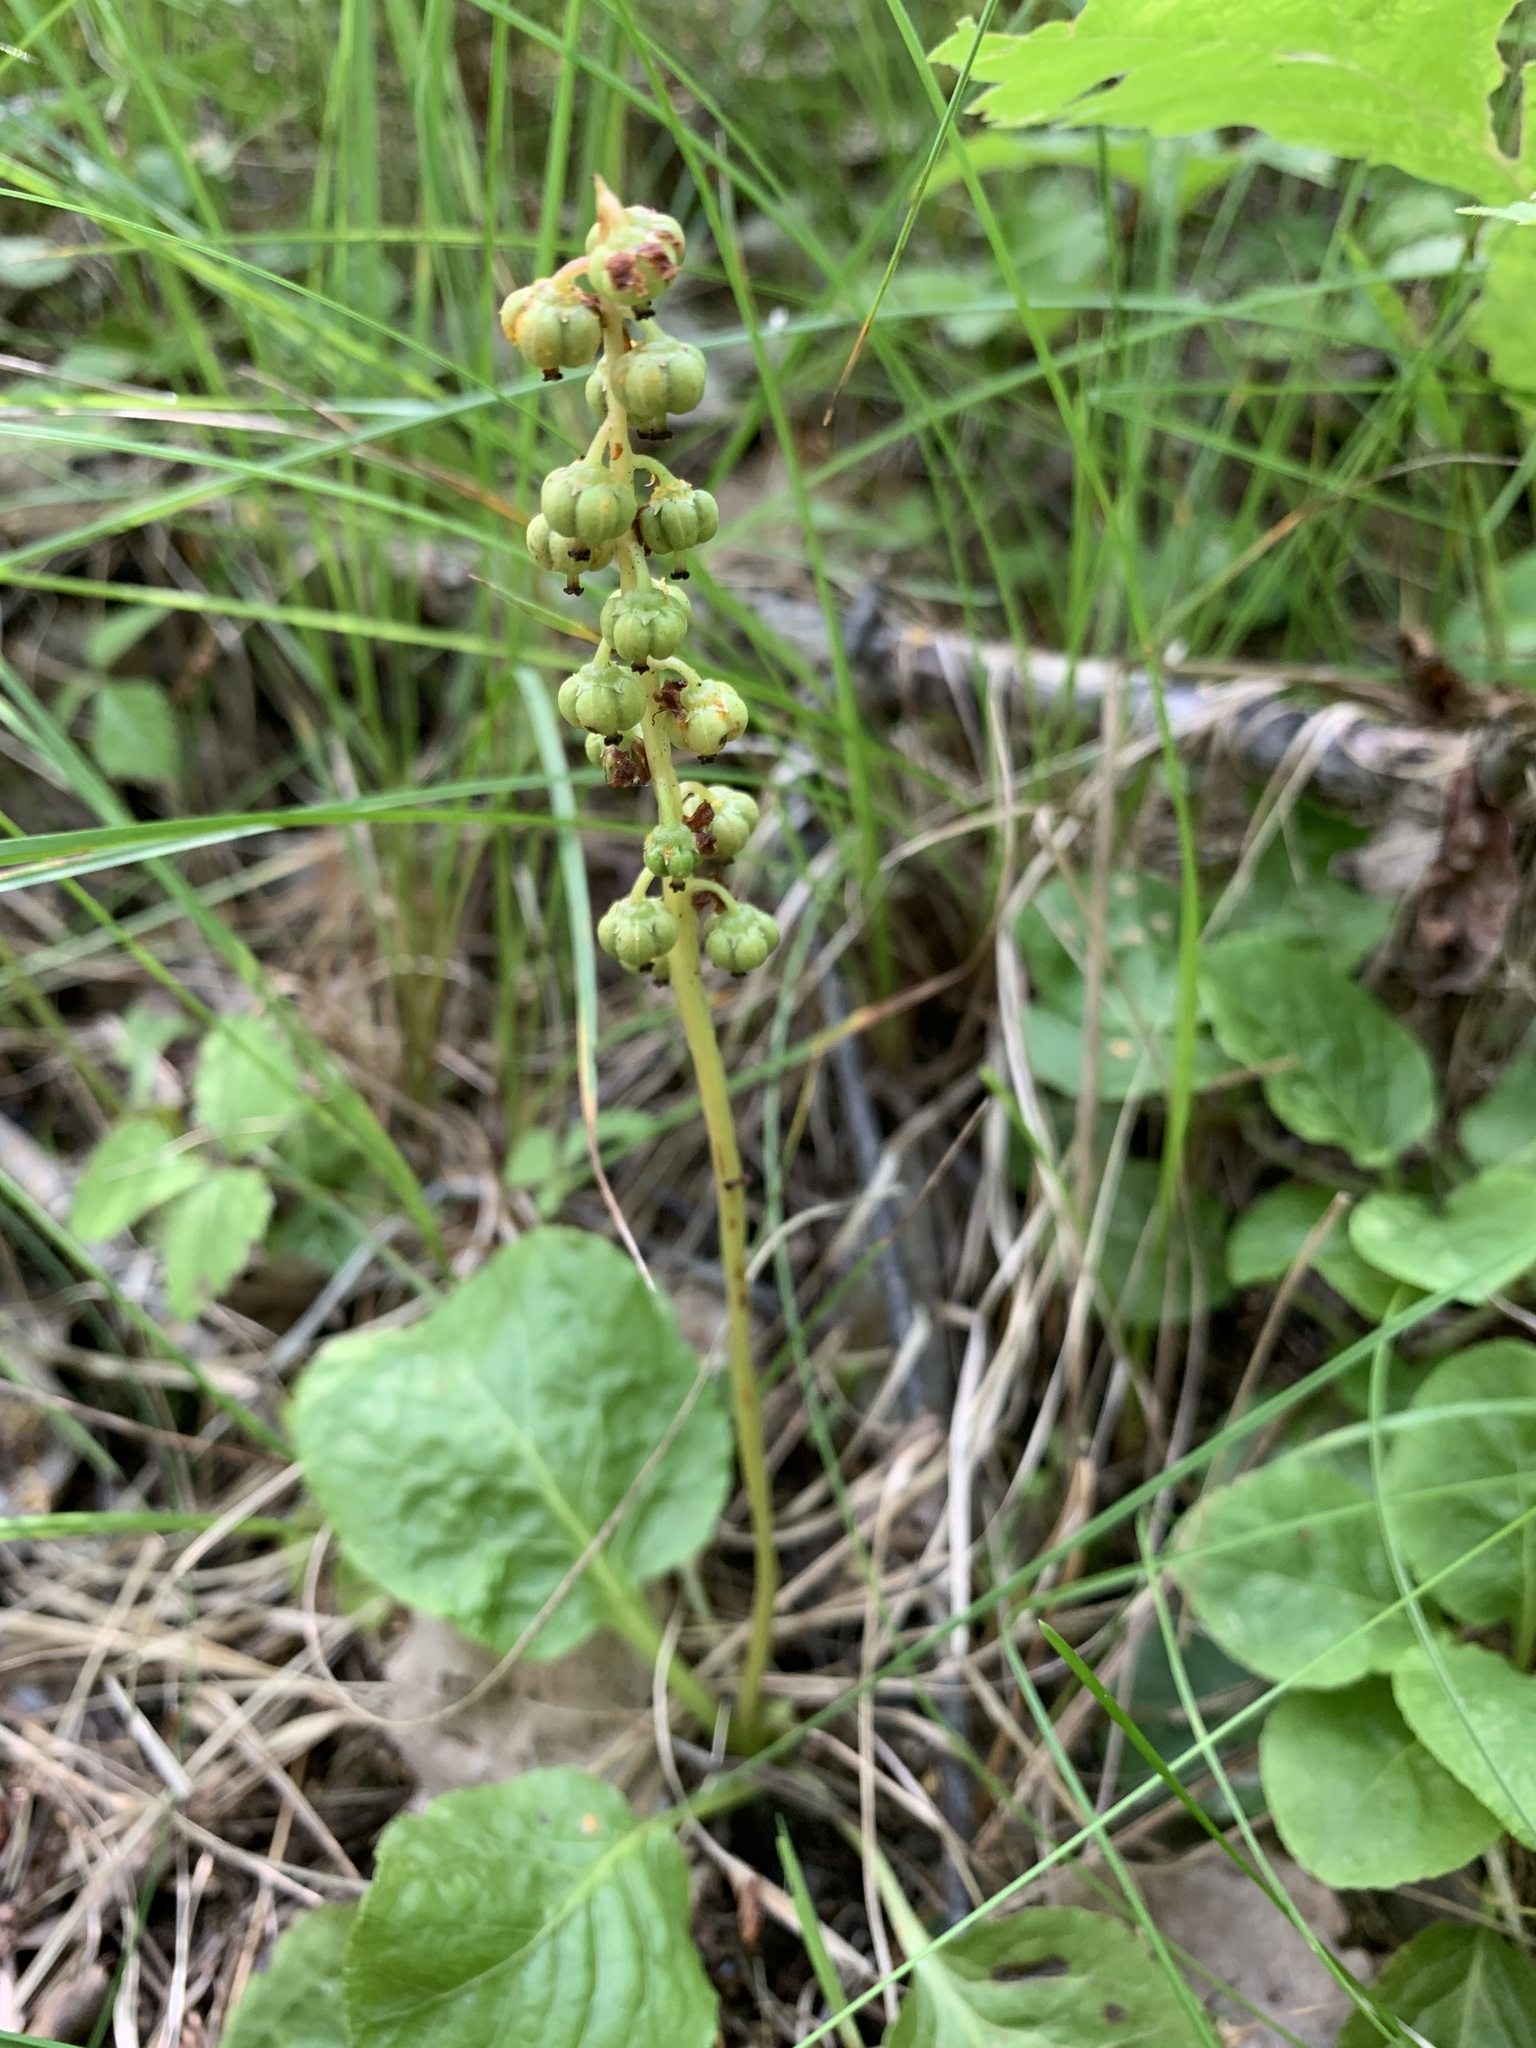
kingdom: Plantae
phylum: Tracheophyta
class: Magnoliopsida
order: Ericales
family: Ericaceae
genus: Pyrola
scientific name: Pyrola minor
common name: Common wintergreen
